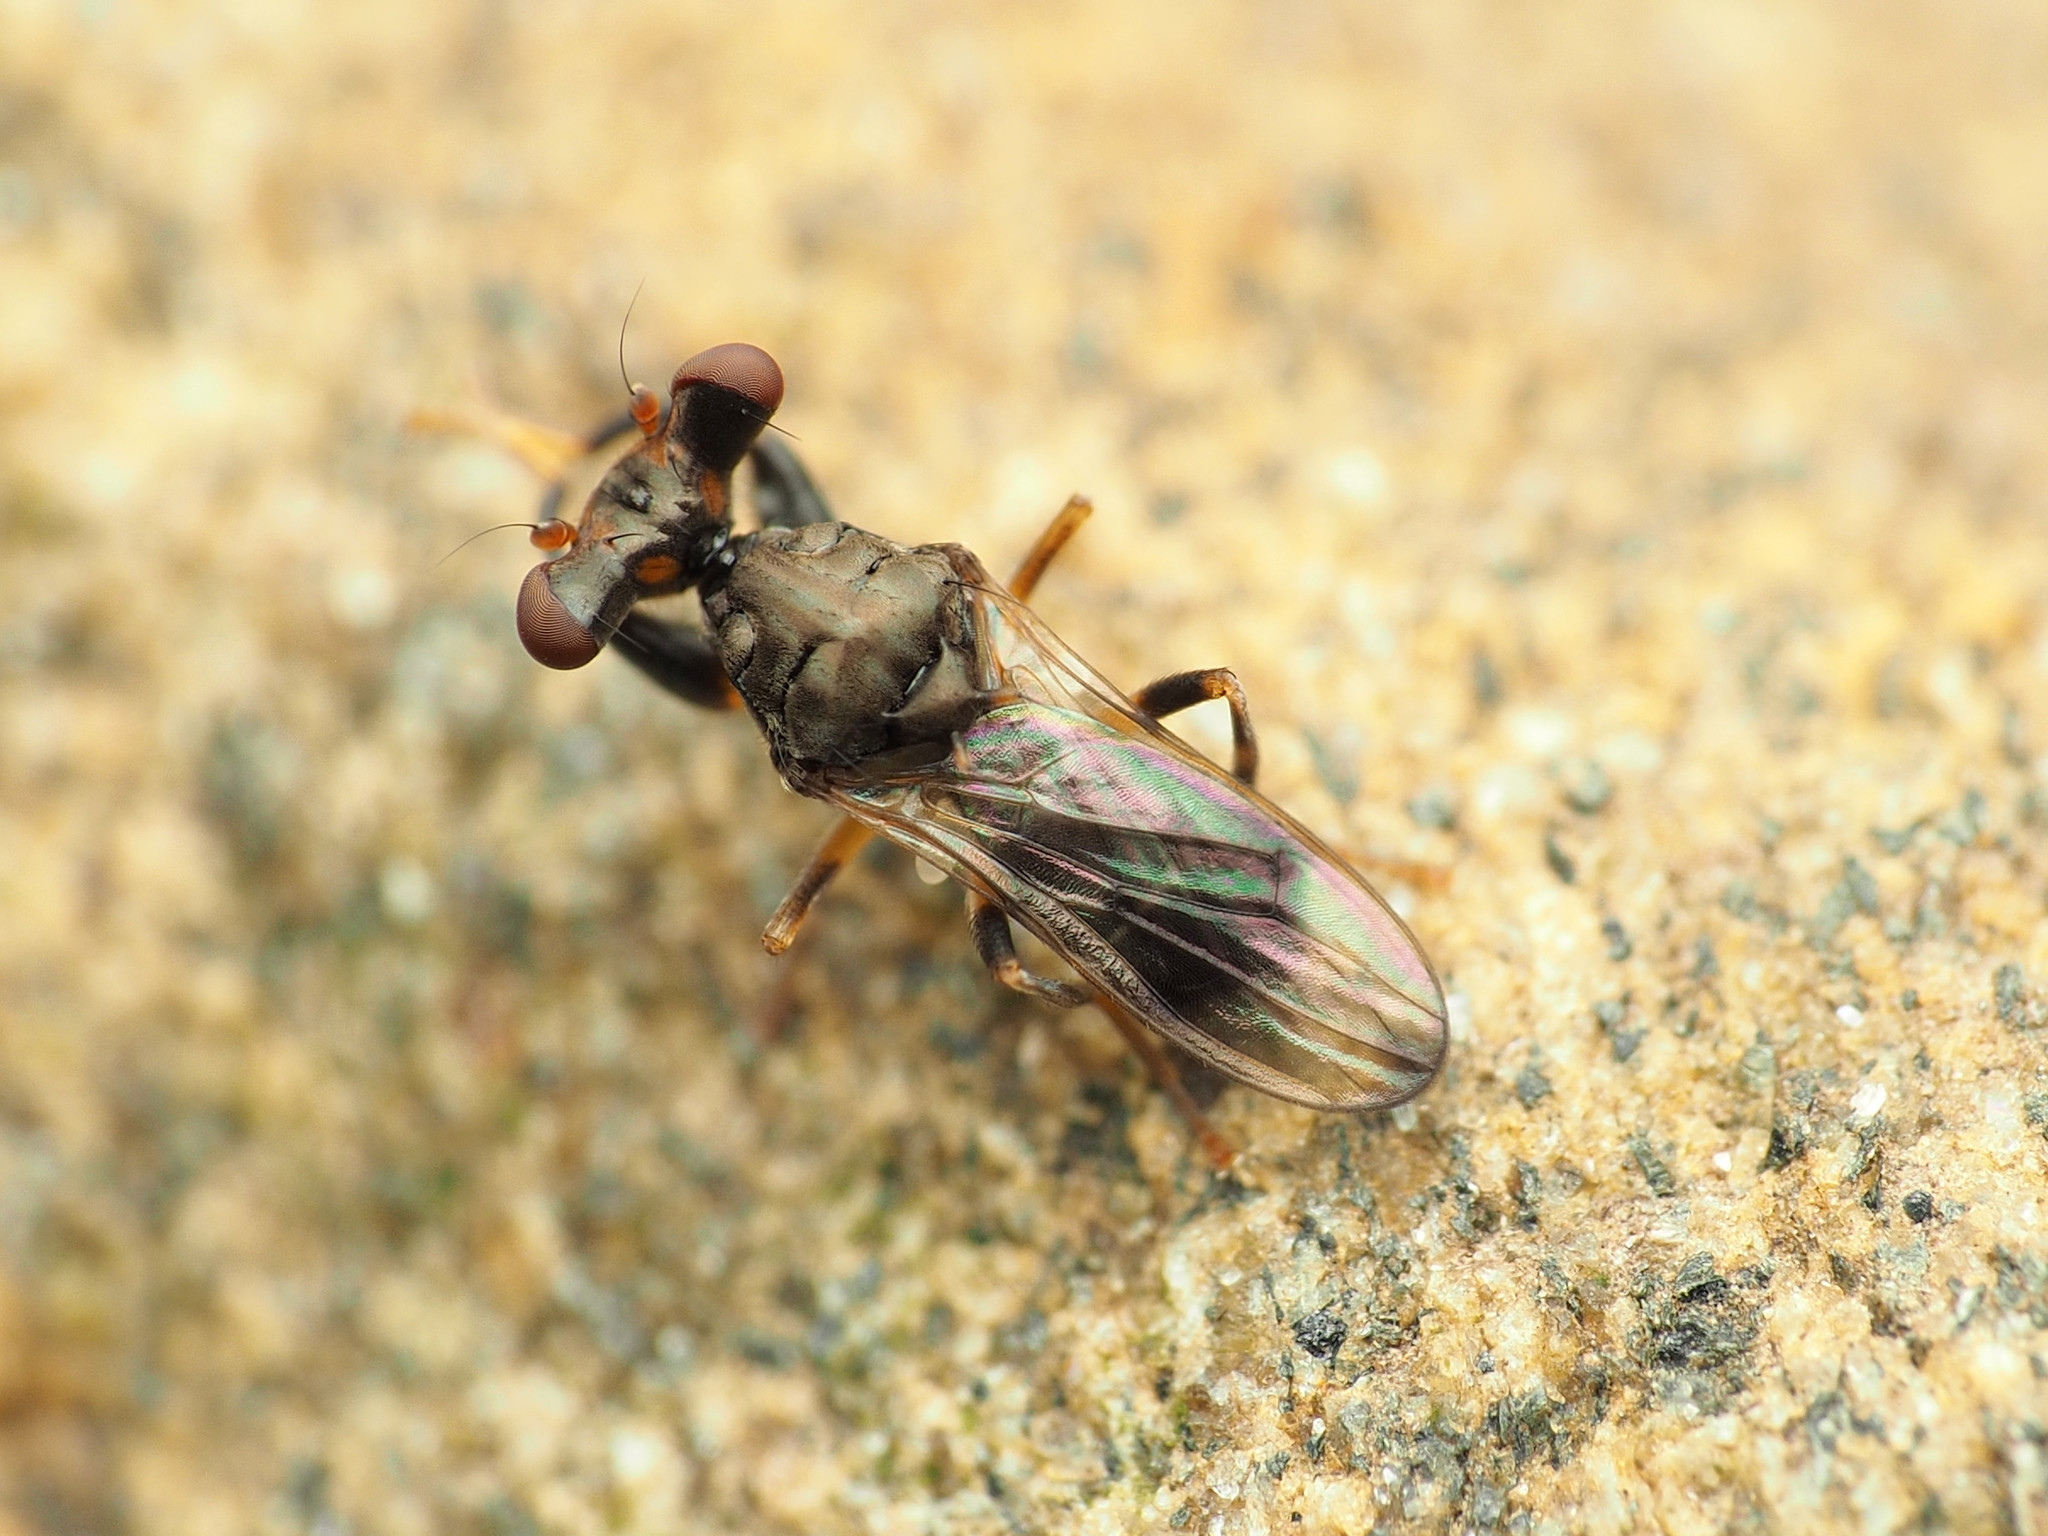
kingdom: Animalia
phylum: Arthropoda
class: Insecta
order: Diptera
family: Diopsidae
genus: Sphyracephala
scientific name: Sphyracephala brevicornis
